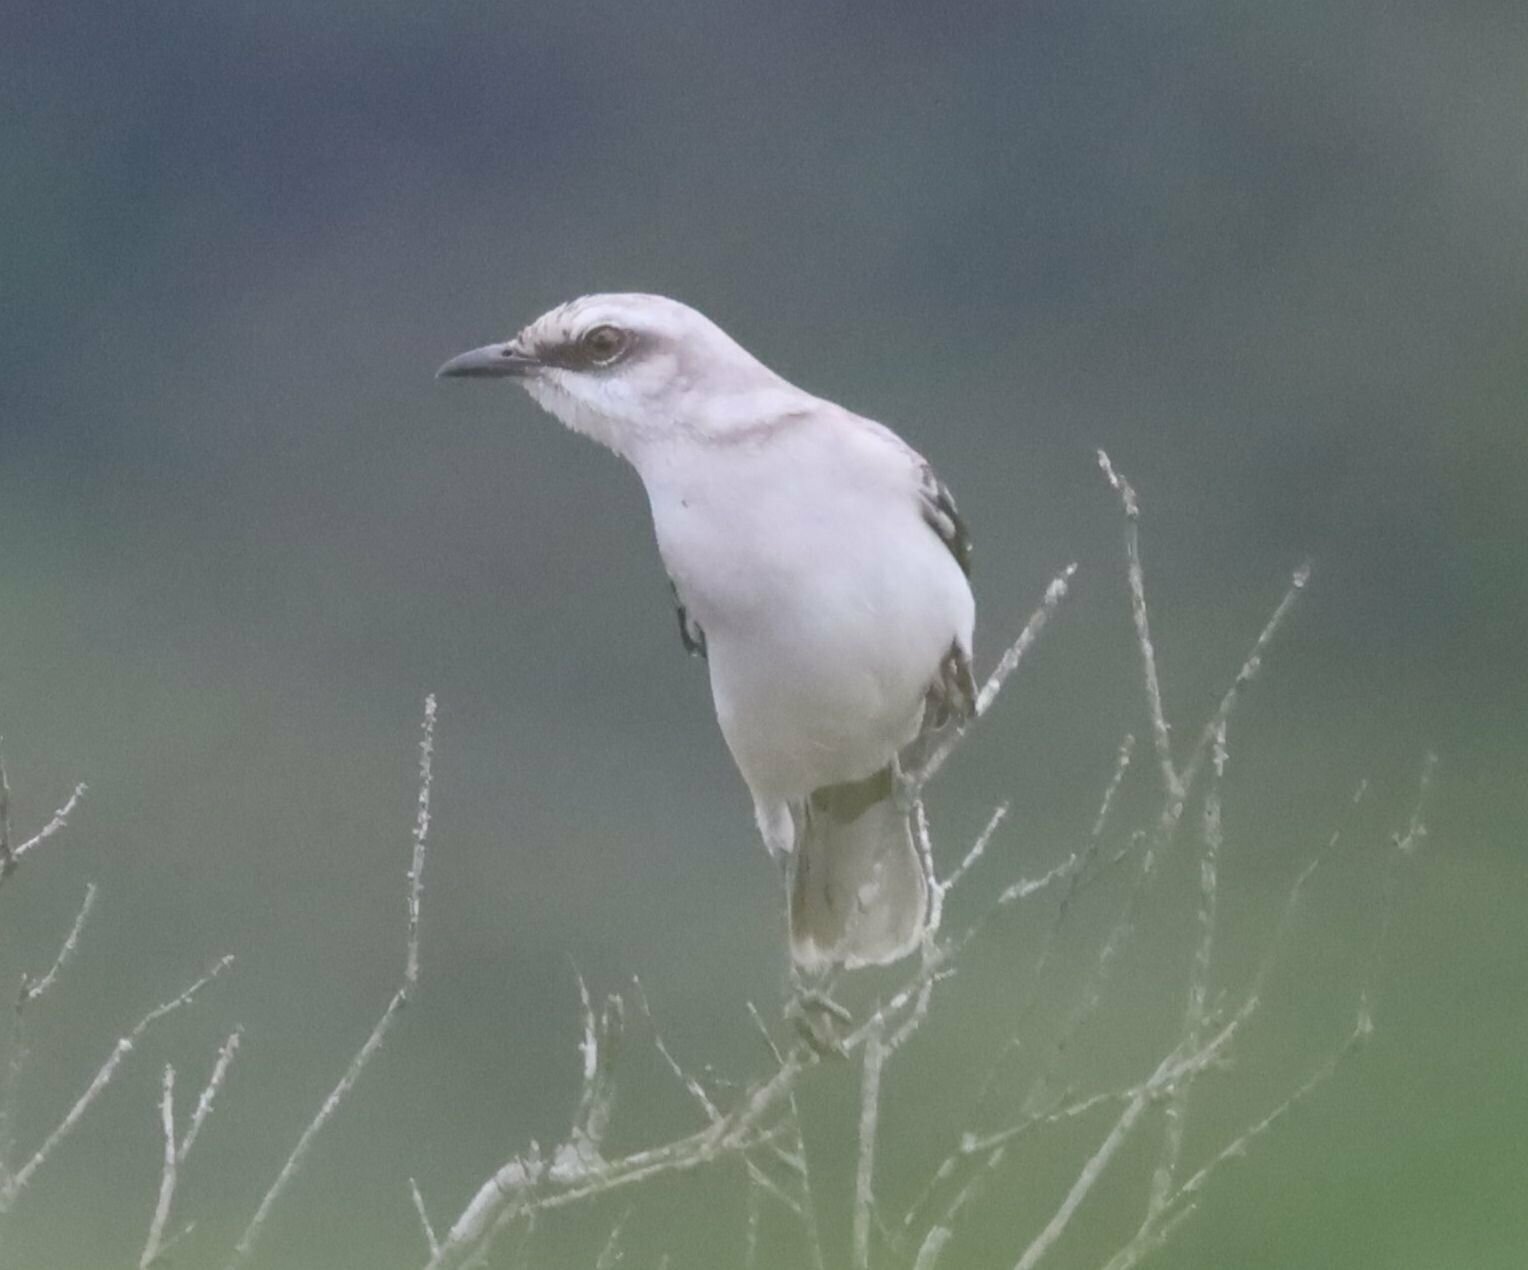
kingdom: Animalia
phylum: Chordata
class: Aves
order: Passeriformes
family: Mimidae
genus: Mimus
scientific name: Mimus gilvus
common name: Tropical mockingbird
